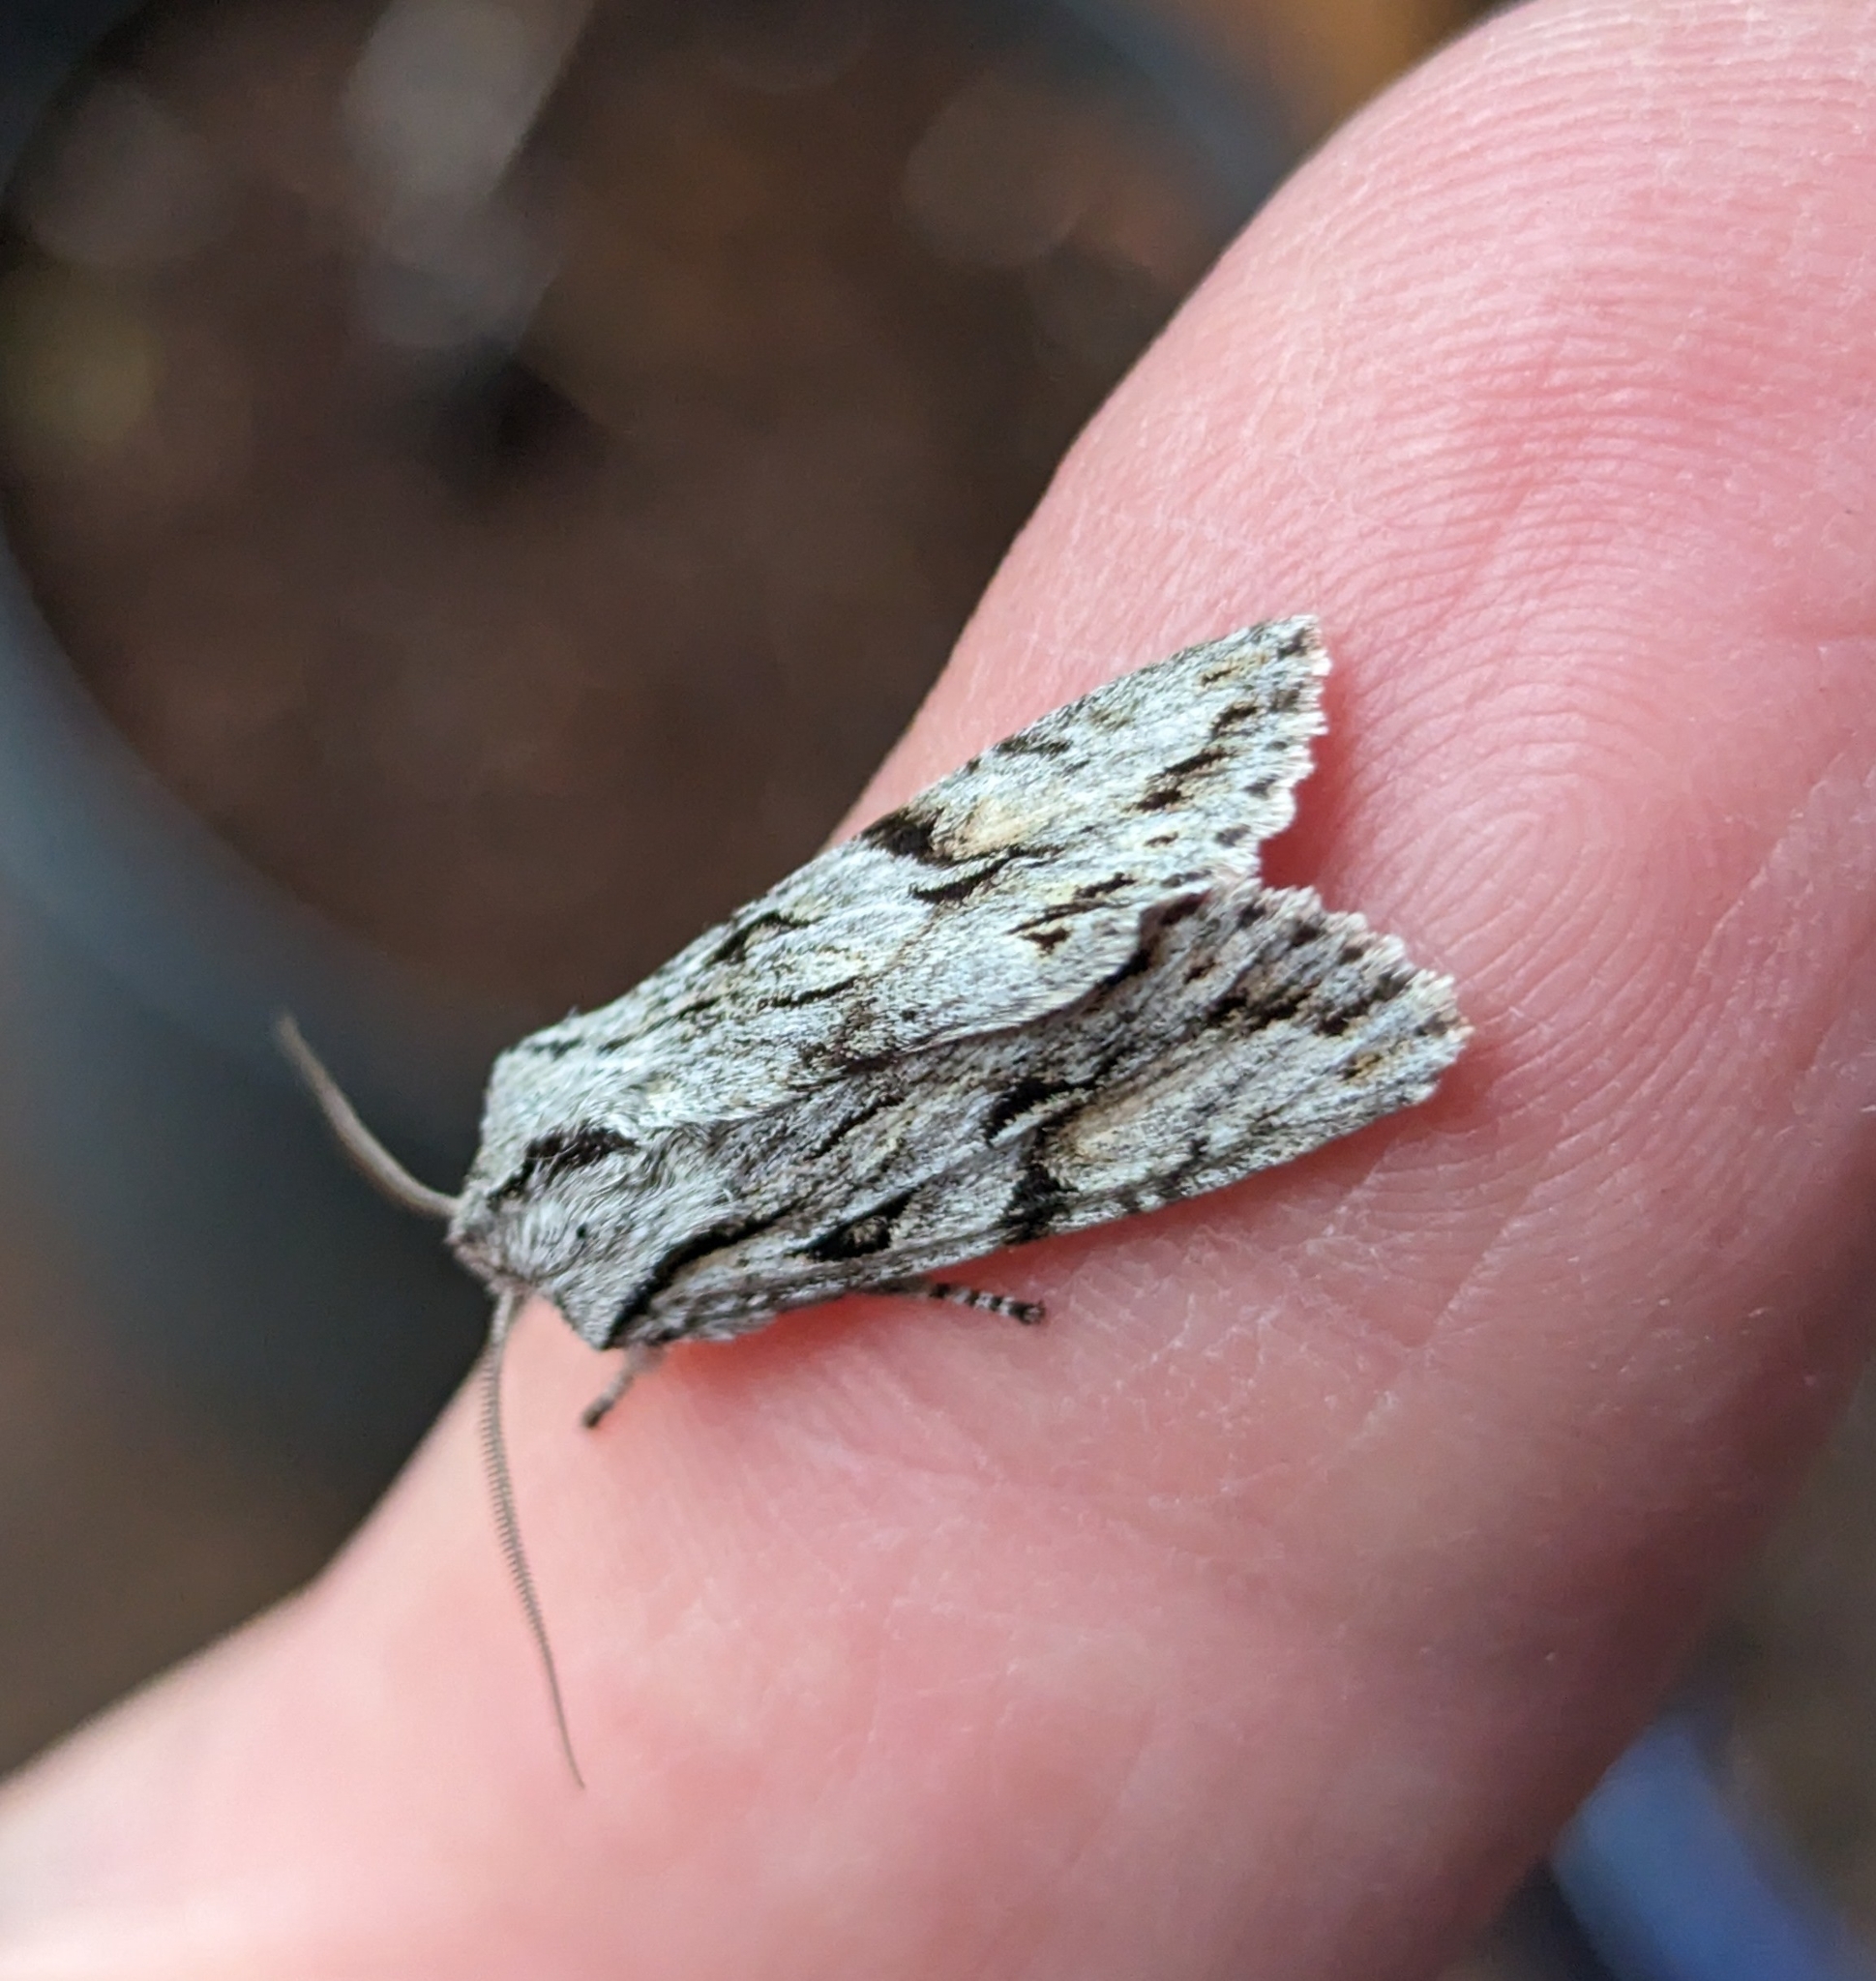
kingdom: Animalia
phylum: Arthropoda
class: Insecta
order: Lepidoptera
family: Noctuidae
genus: Egira
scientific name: Egira crucialis
